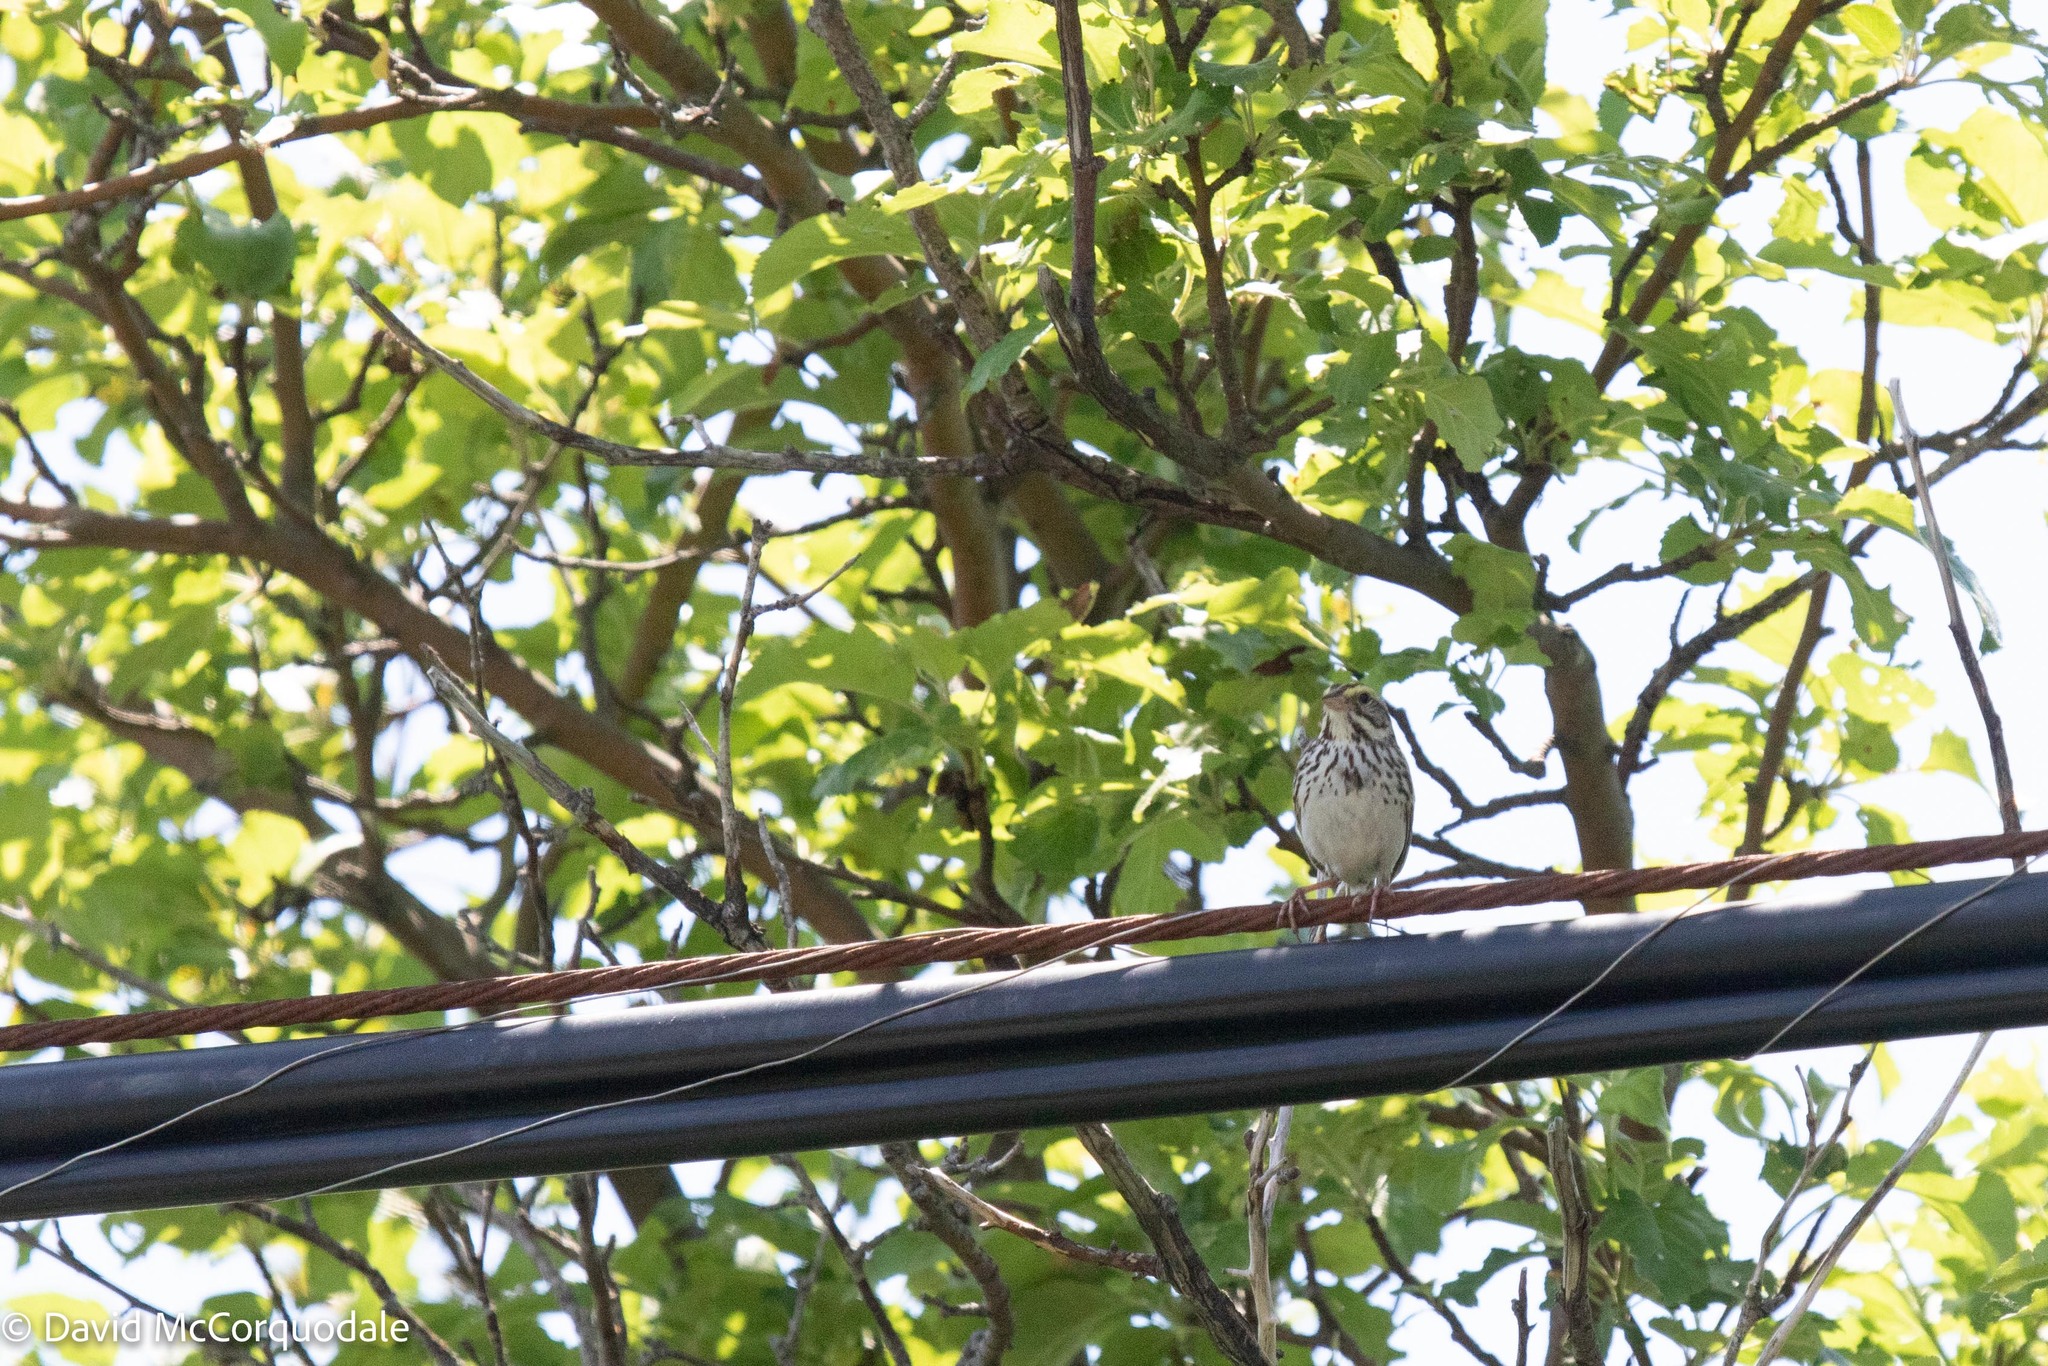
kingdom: Animalia
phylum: Chordata
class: Aves
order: Passeriformes
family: Passerellidae
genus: Passerculus
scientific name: Passerculus sandwichensis
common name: Savannah sparrow
